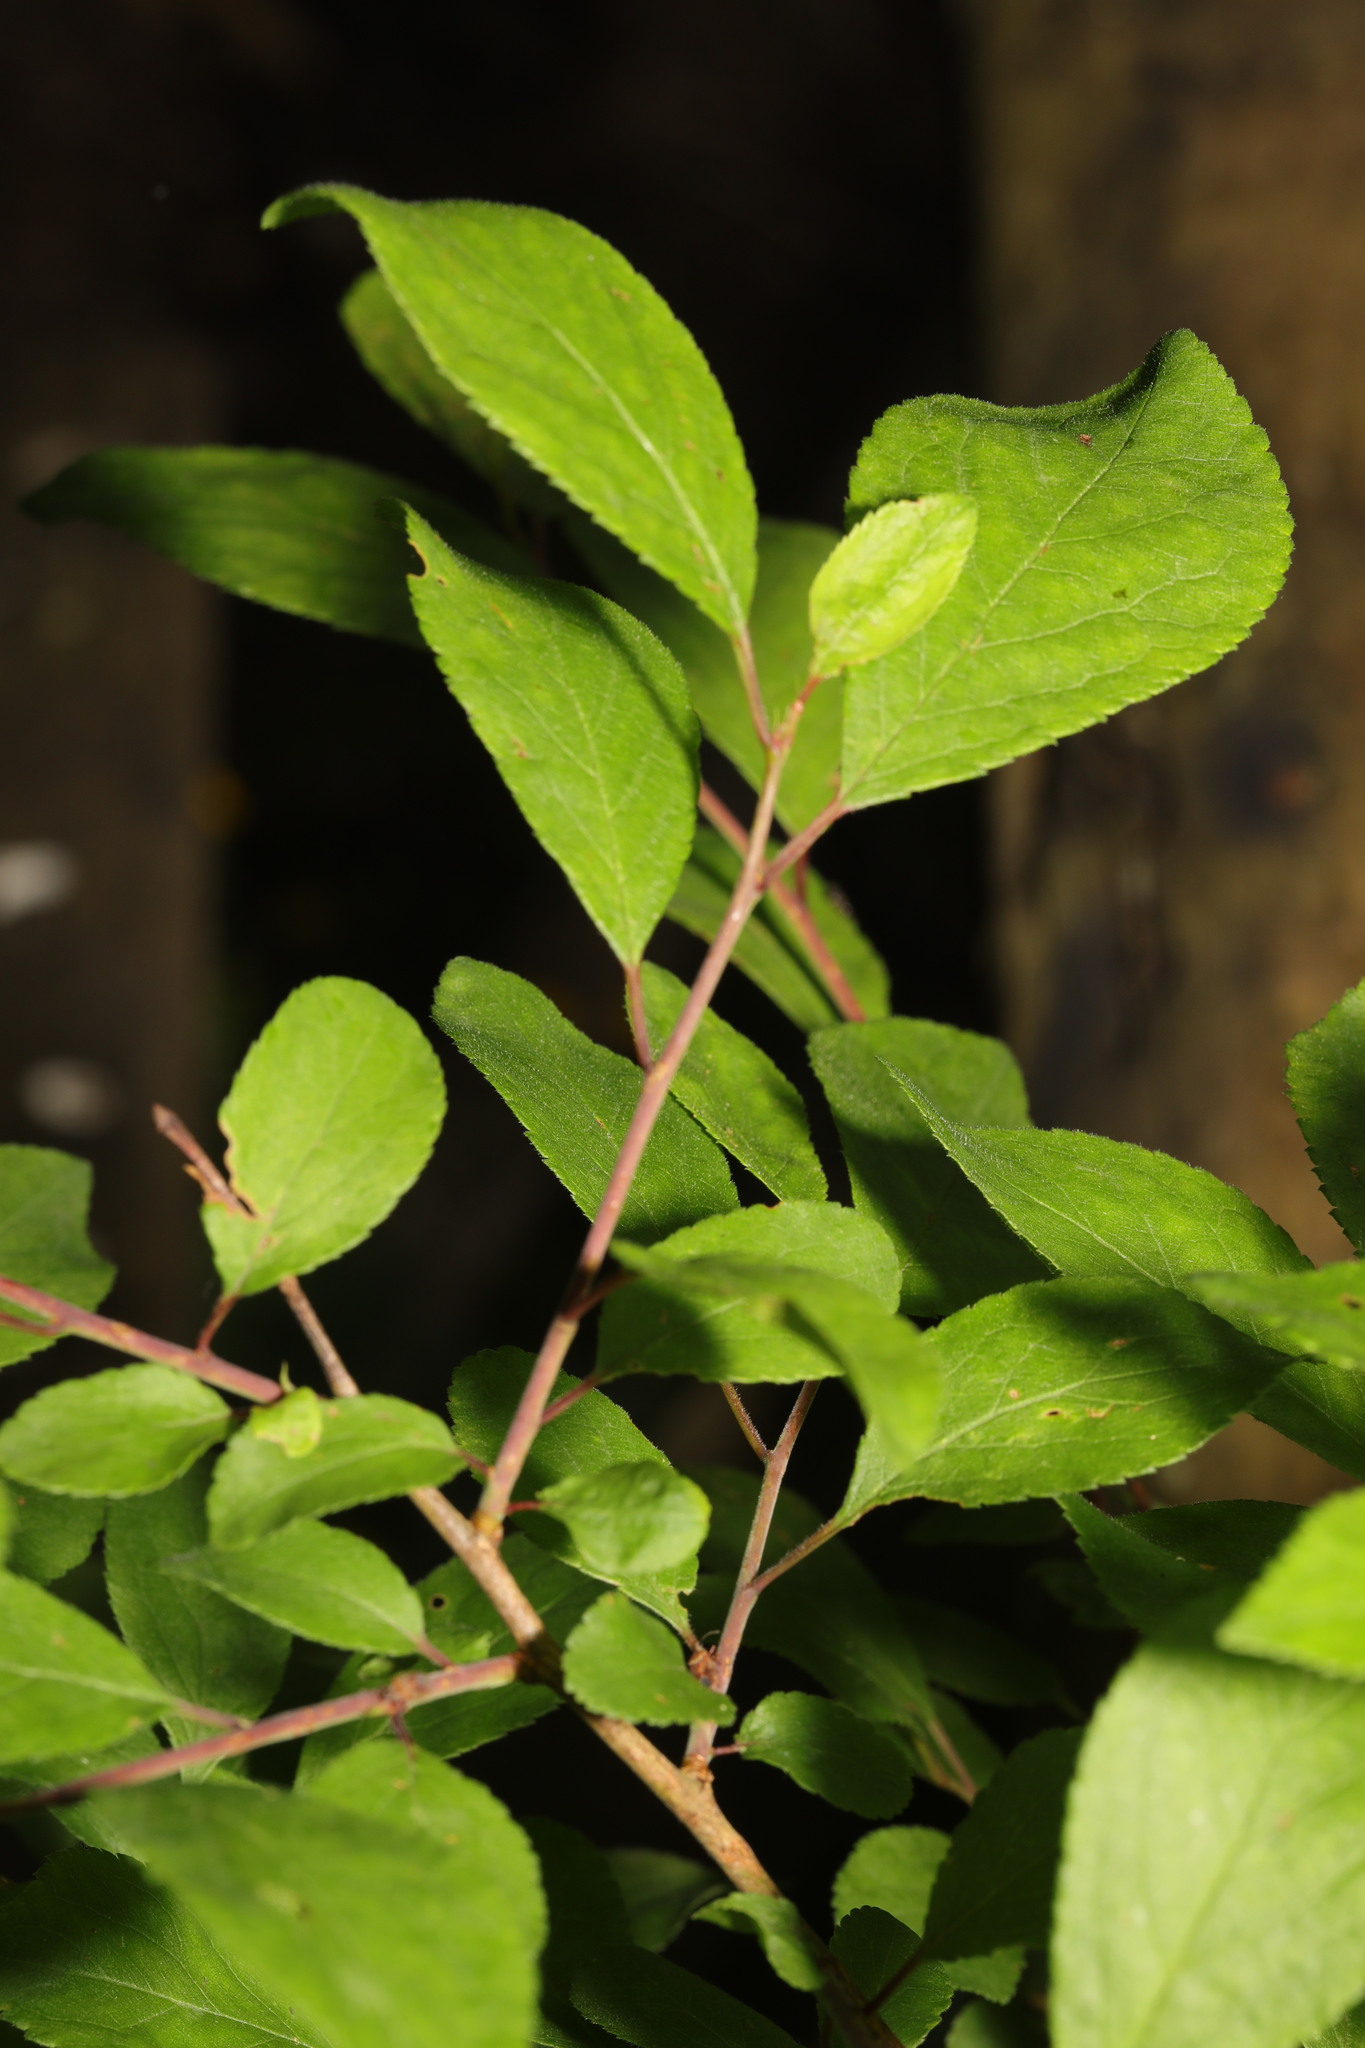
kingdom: Plantae
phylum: Tracheophyta
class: Magnoliopsida
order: Rosales
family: Rosaceae
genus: Prunus
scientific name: Prunus spinosa
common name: Blackthorn
